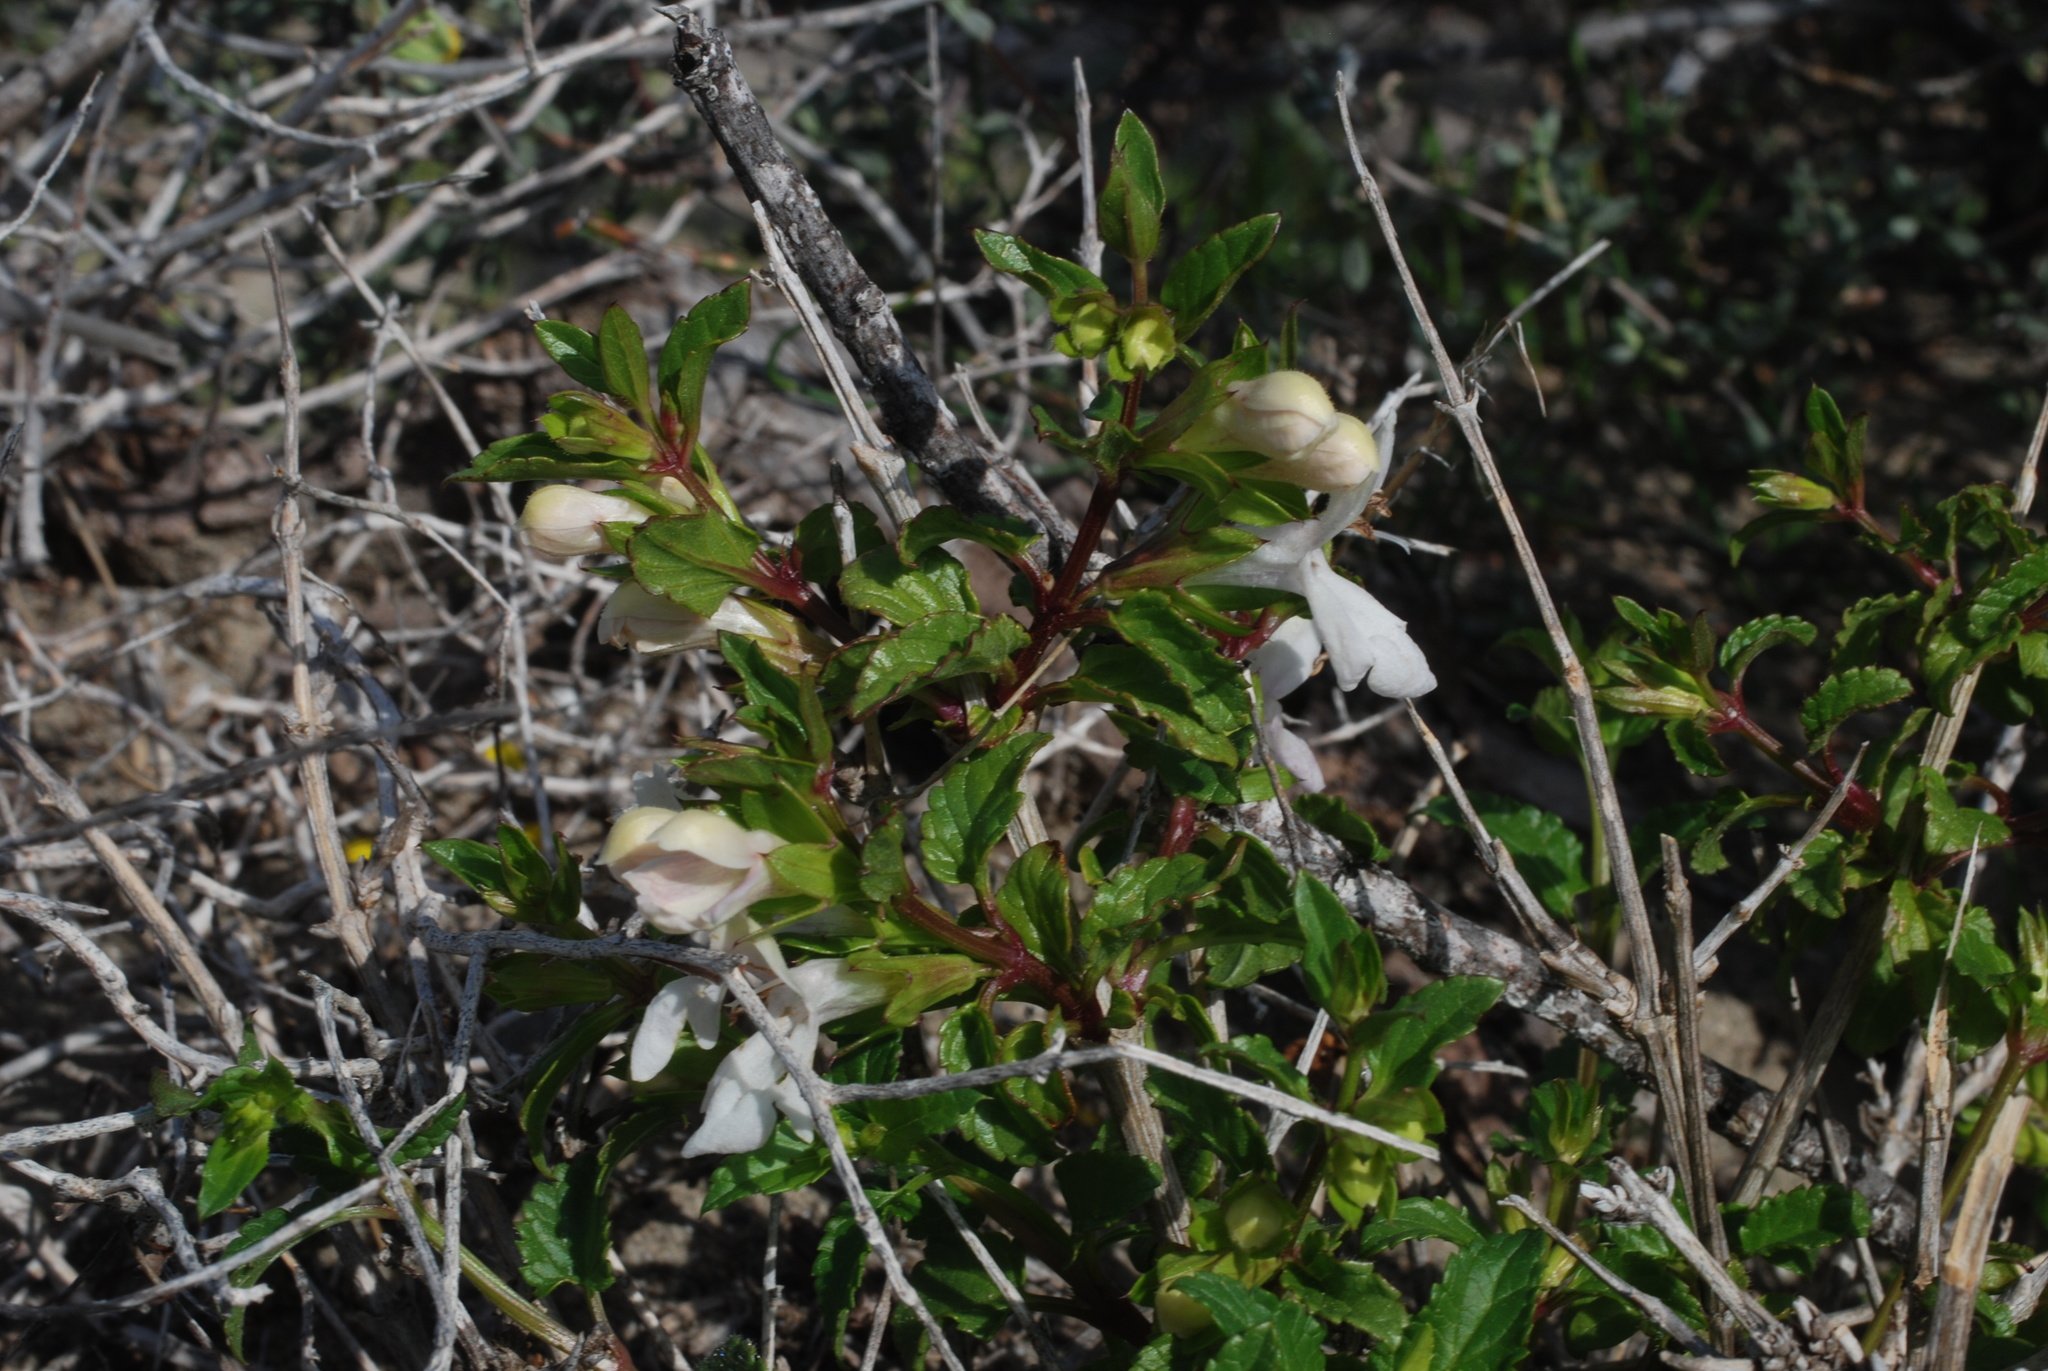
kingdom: Plantae
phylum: Tracheophyta
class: Magnoliopsida
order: Lamiales
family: Lamiaceae
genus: Prasium
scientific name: Prasium majus
